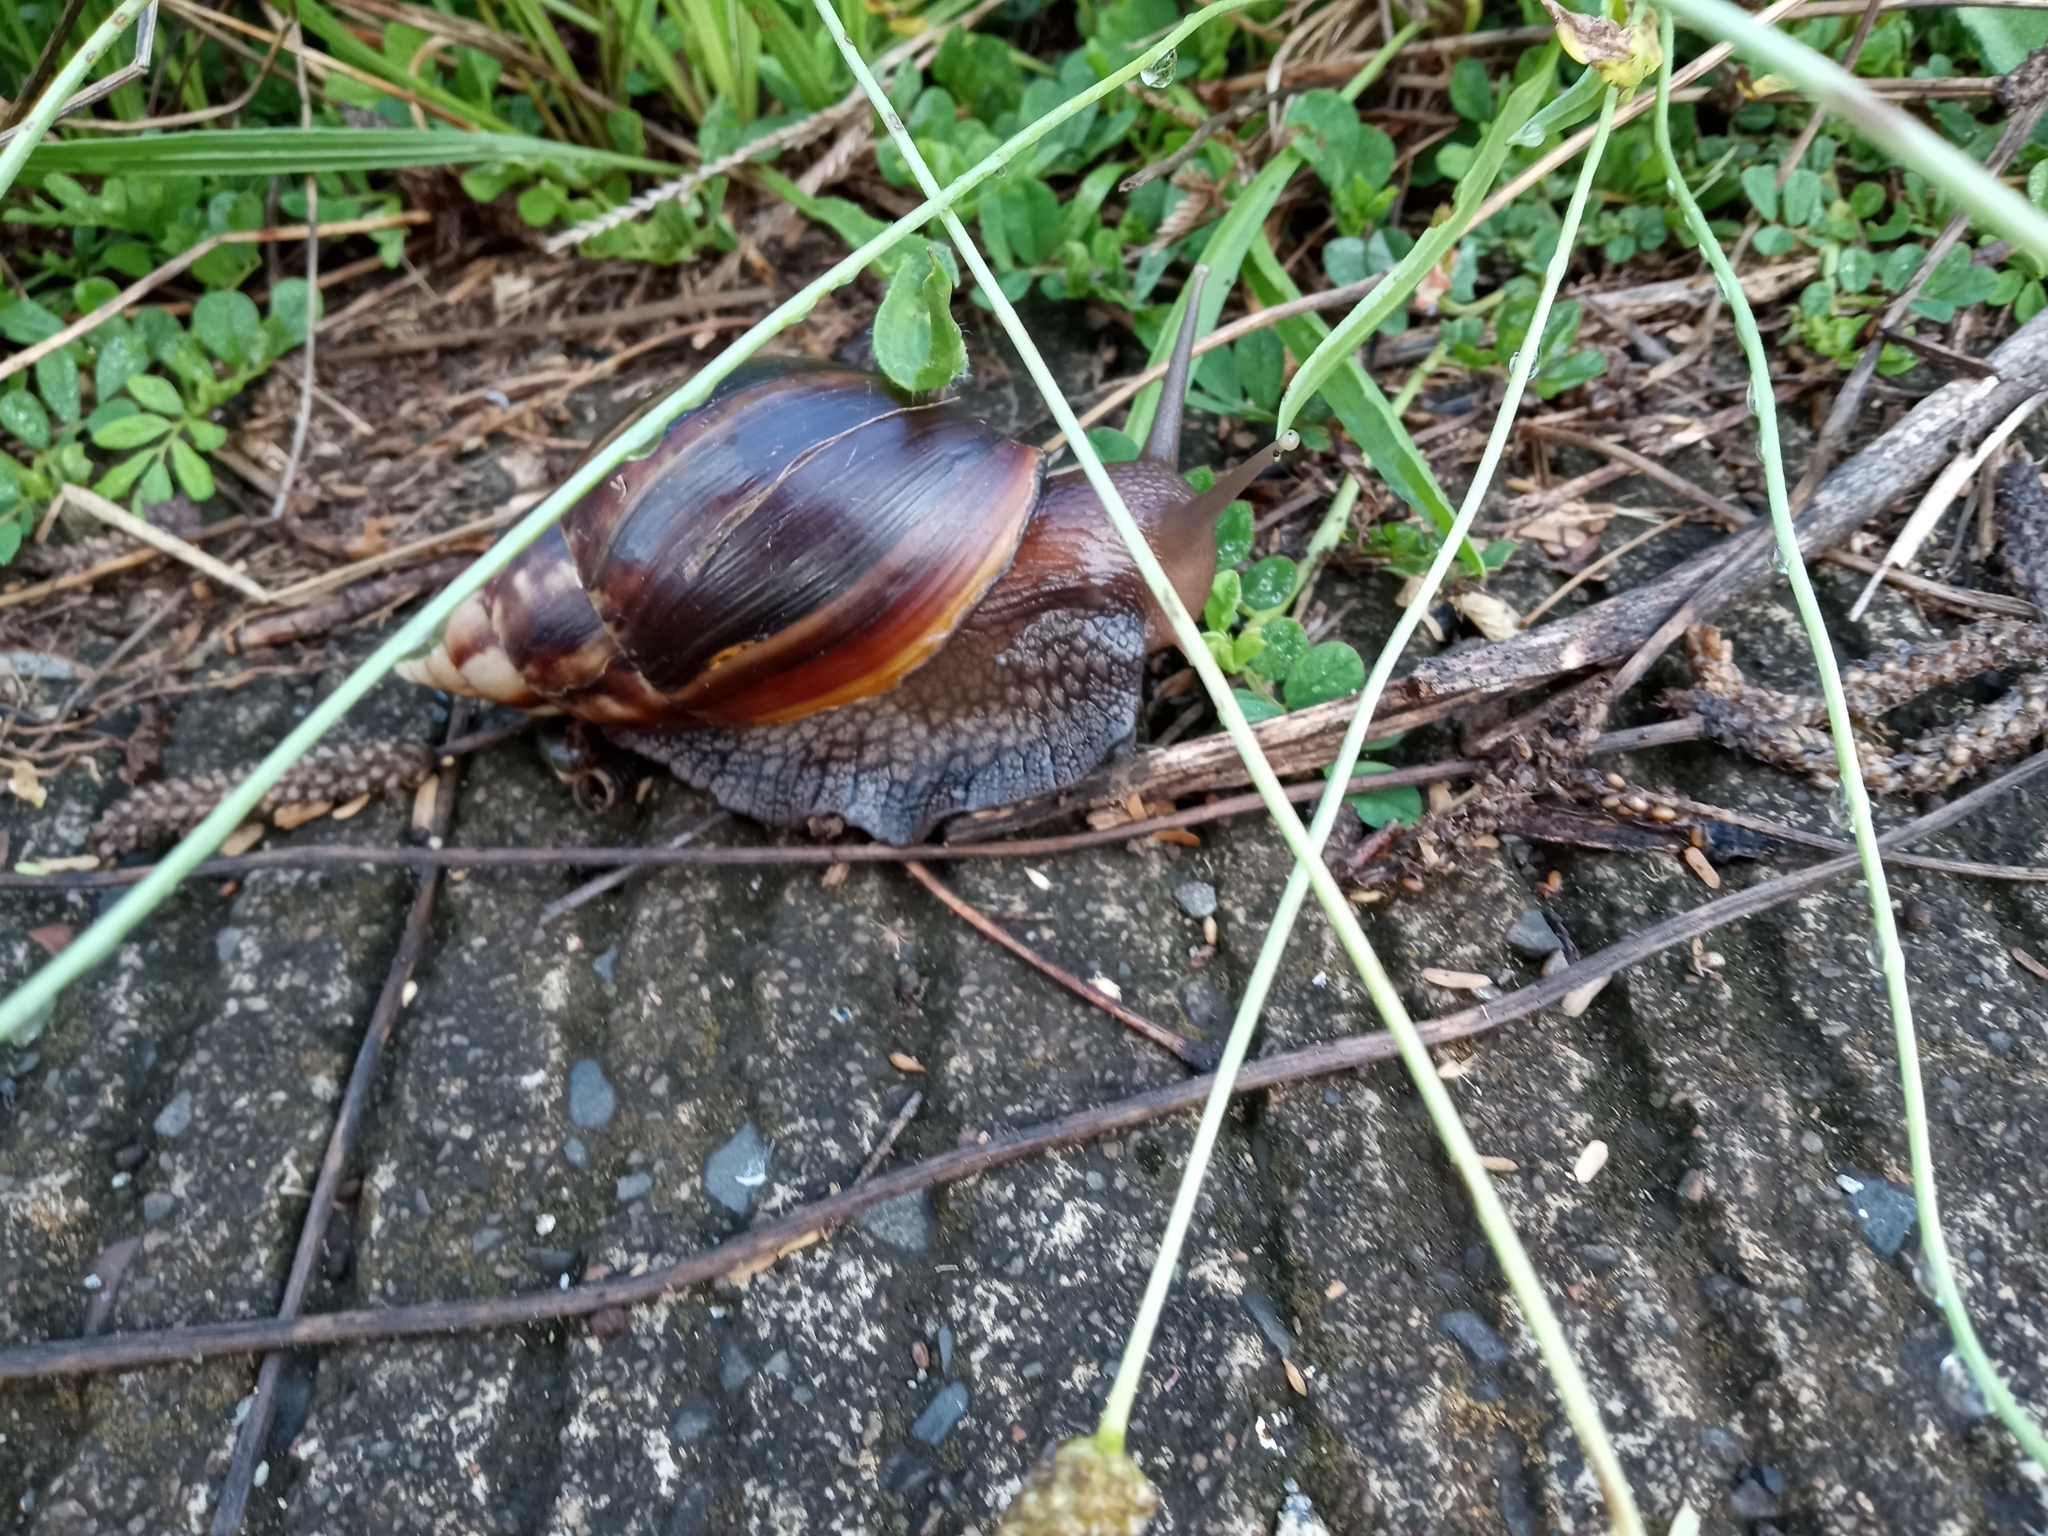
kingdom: Animalia
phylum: Mollusca
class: Gastropoda
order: Stylommatophora
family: Achatinidae
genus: Lissachatina
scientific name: Lissachatina fulica
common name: Giant african snail
